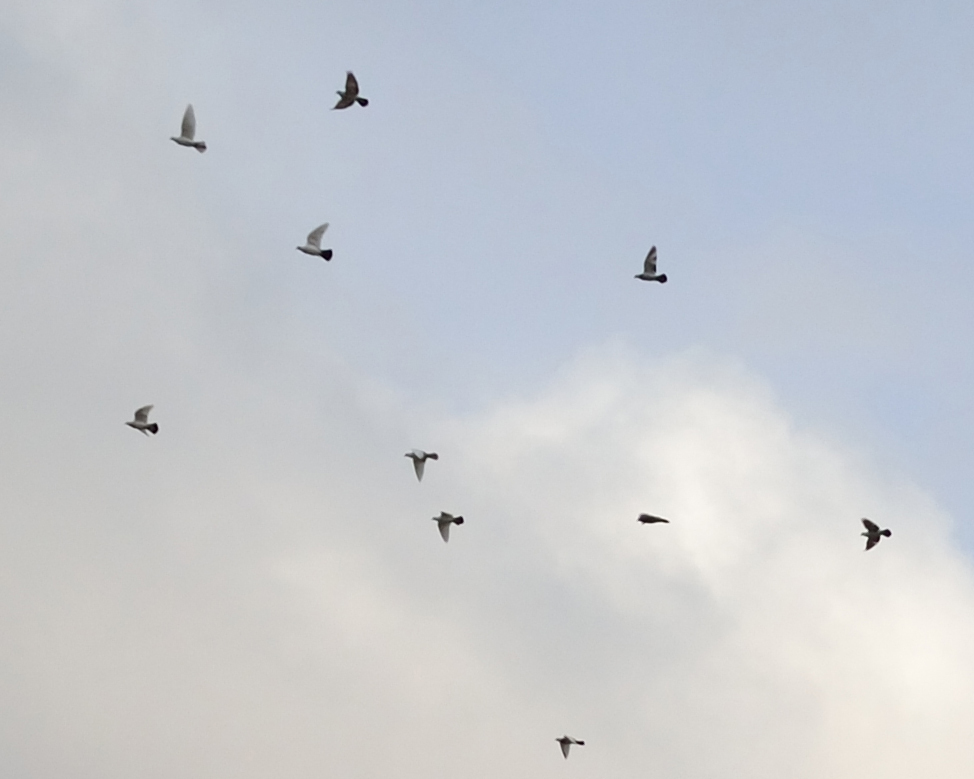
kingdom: Animalia
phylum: Chordata
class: Aves
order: Columbiformes
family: Columbidae
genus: Columba
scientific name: Columba livia
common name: Rock pigeon
